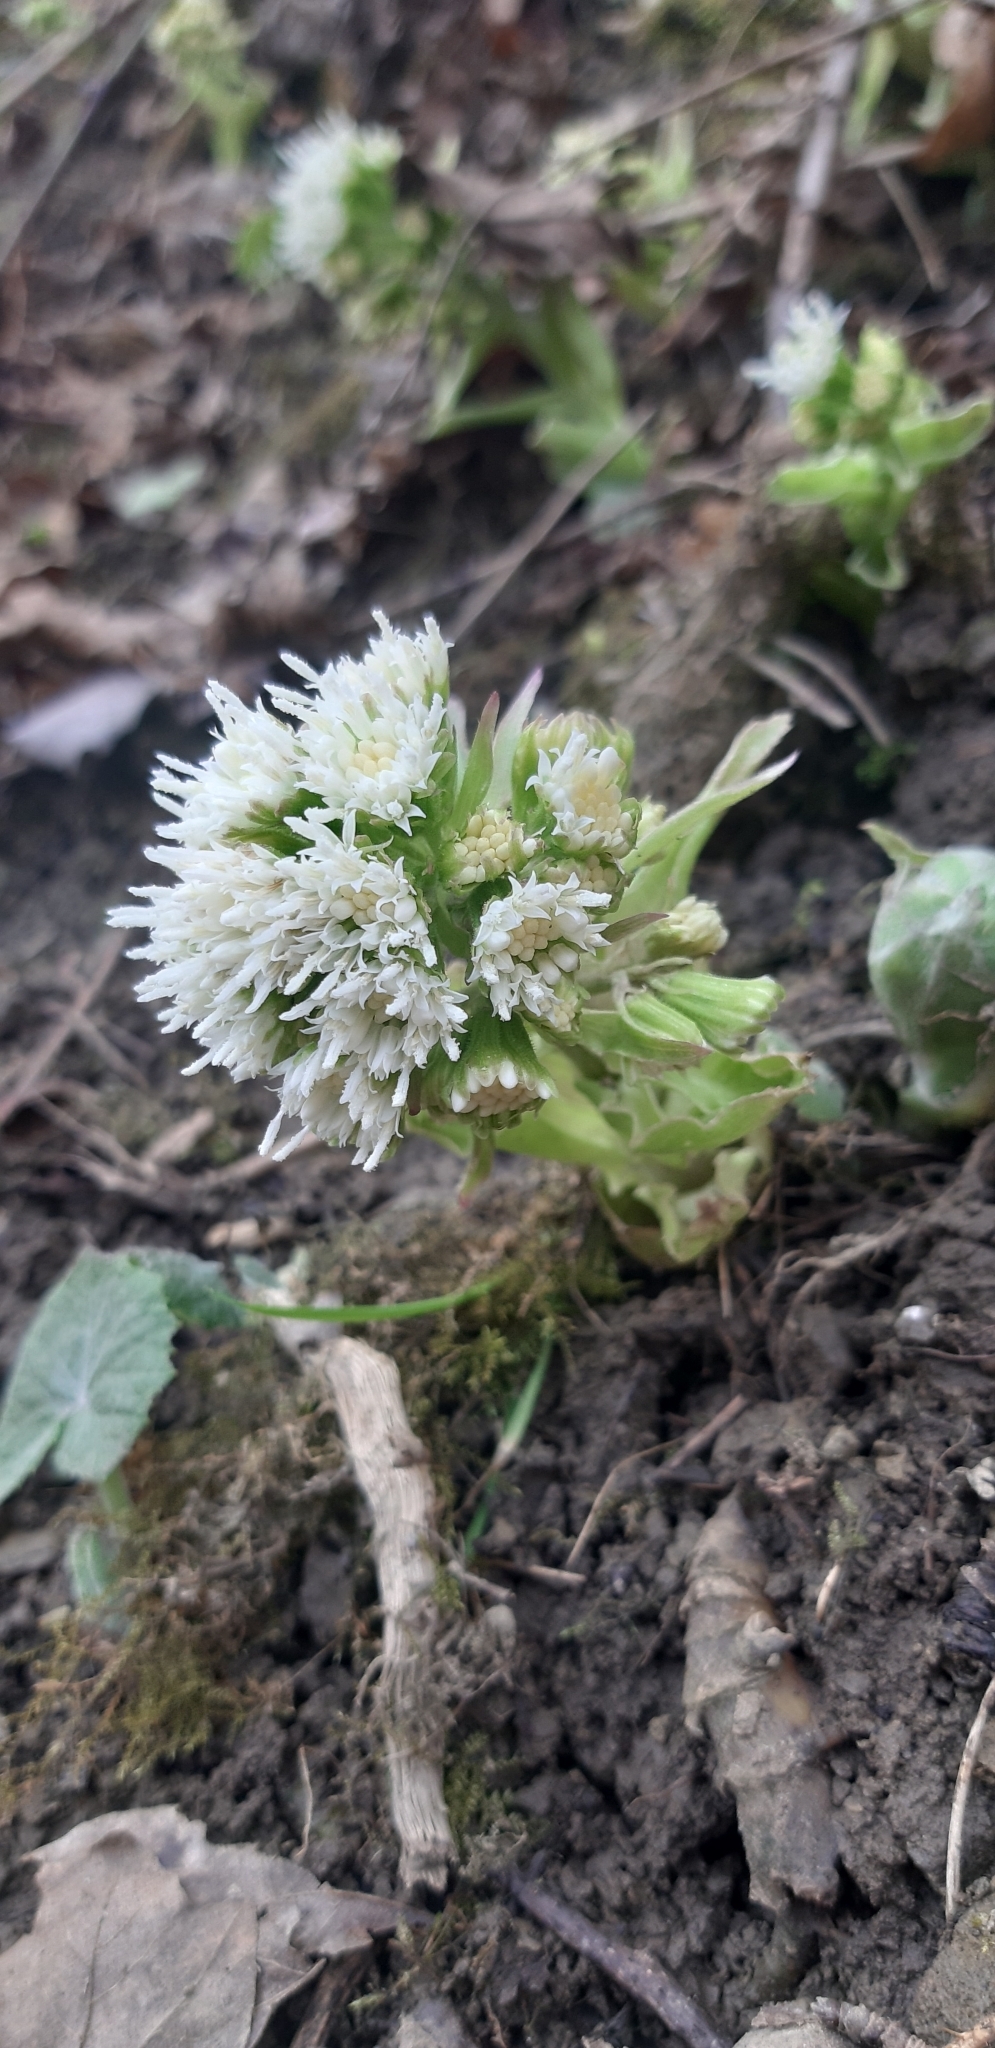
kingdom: Plantae
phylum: Tracheophyta
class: Magnoliopsida
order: Asterales
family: Asteraceae
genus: Petasites
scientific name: Petasites albus
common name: White butterbur
